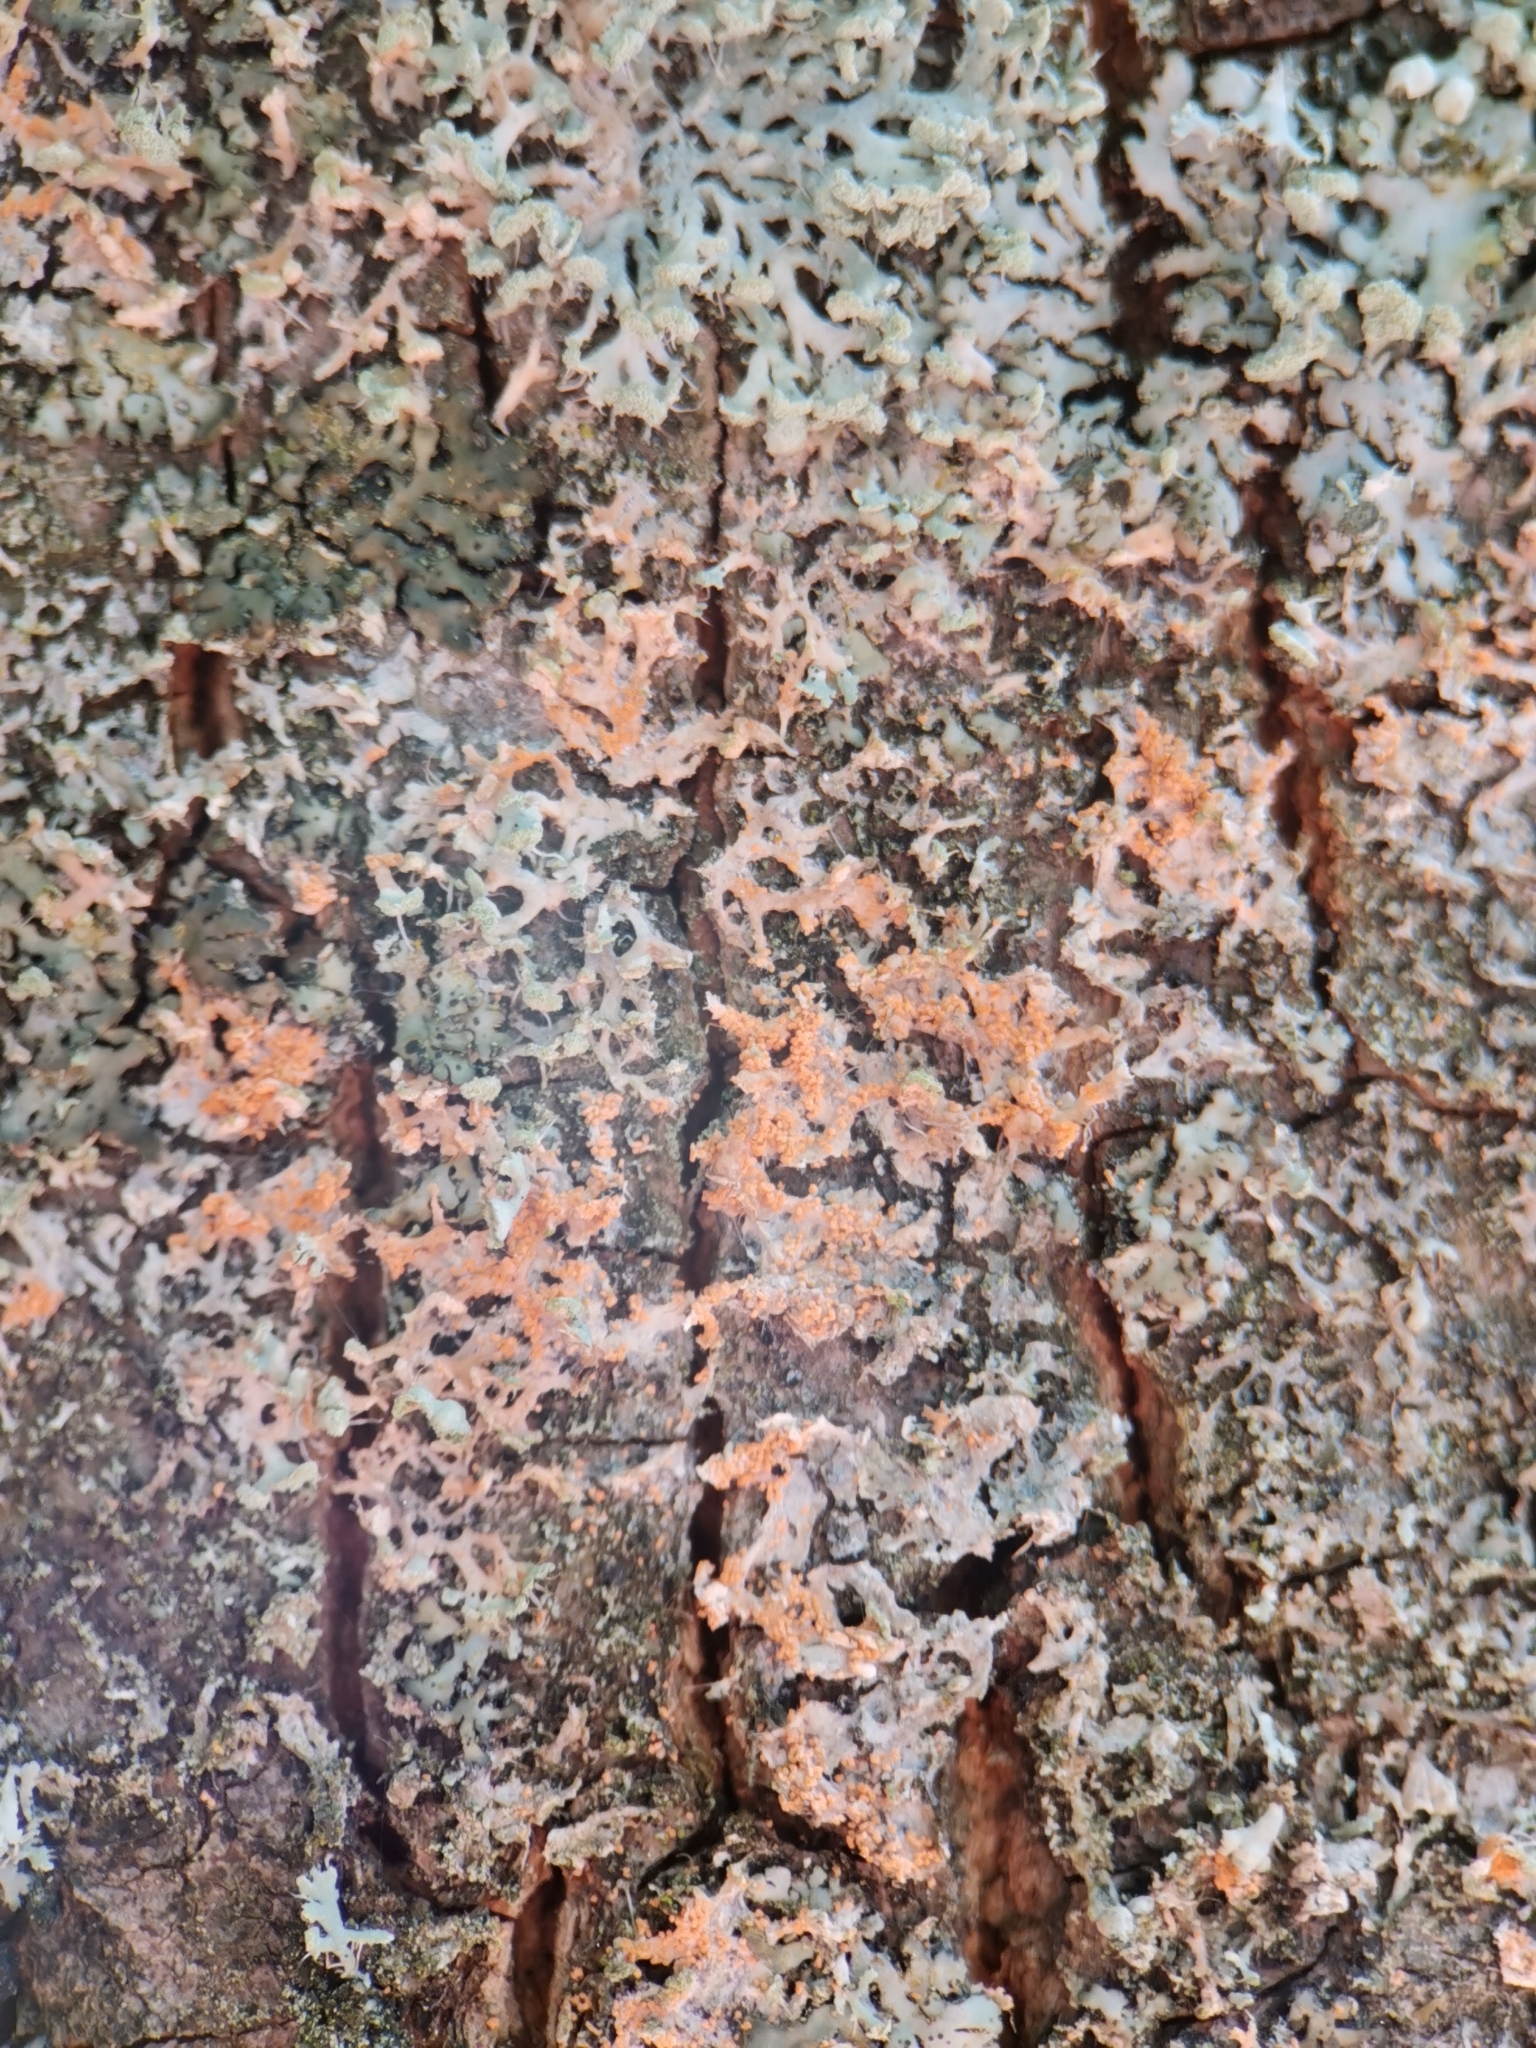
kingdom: Fungi
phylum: Basidiomycota
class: Agaricomycetes
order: Corticiales
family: Corticiaceae
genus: Erythricium
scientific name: Erythricium aurantiacum
